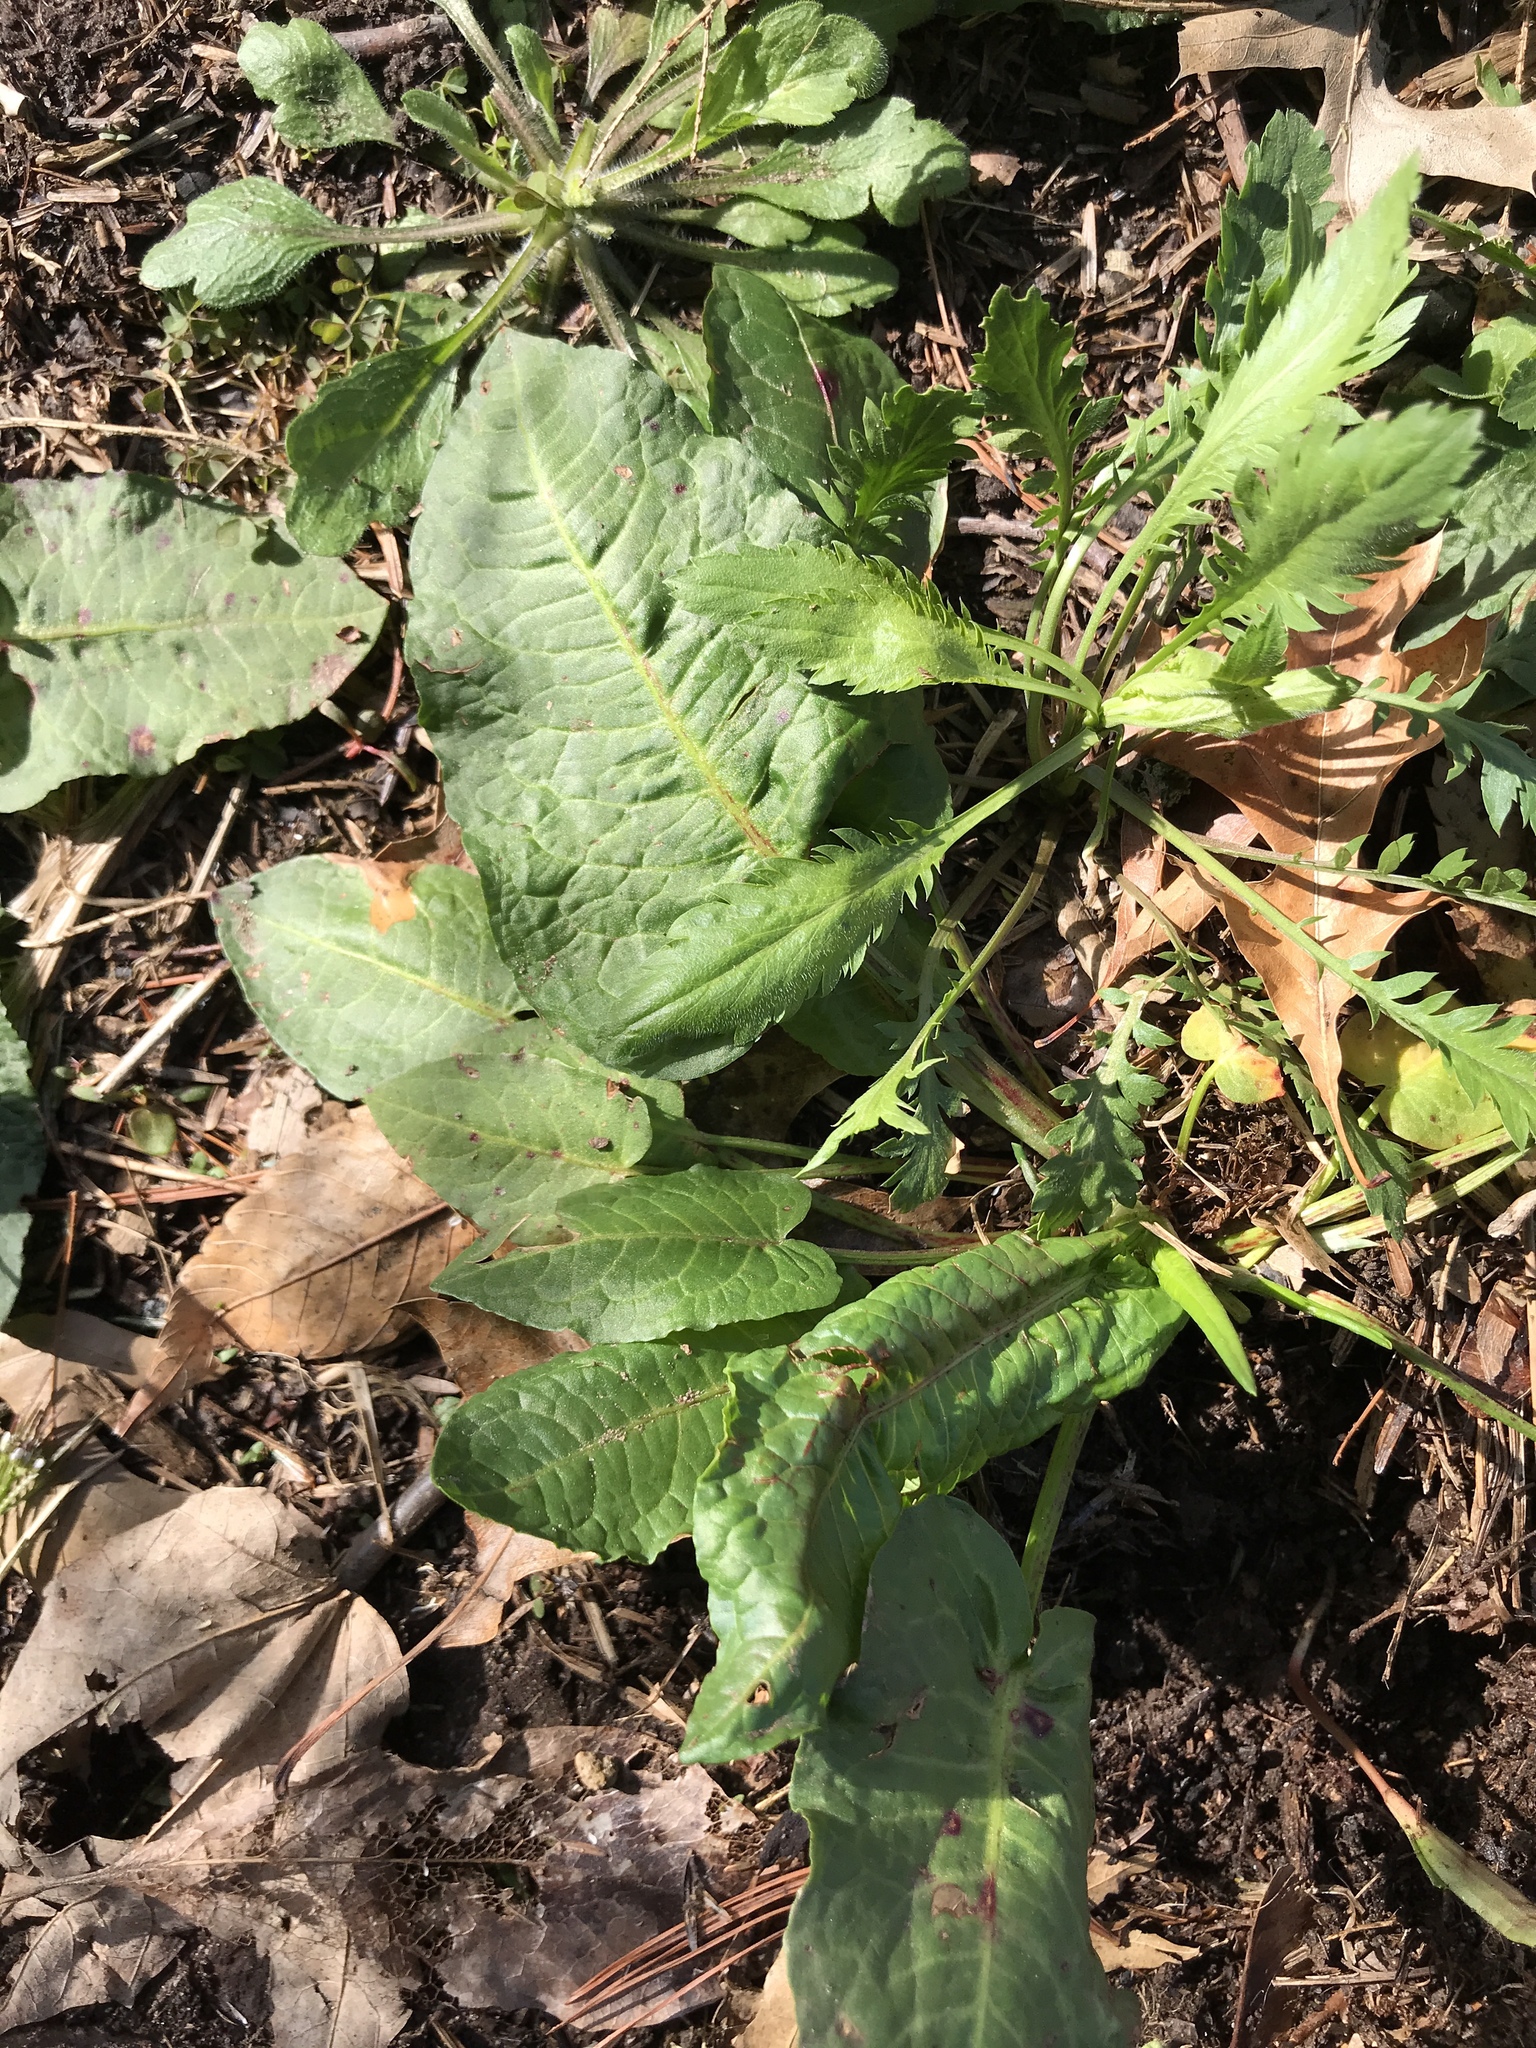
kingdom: Plantae
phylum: Tracheophyta
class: Magnoliopsida
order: Caryophyllales
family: Polygonaceae
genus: Rumex
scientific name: Rumex obtusifolius
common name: Bitter dock
